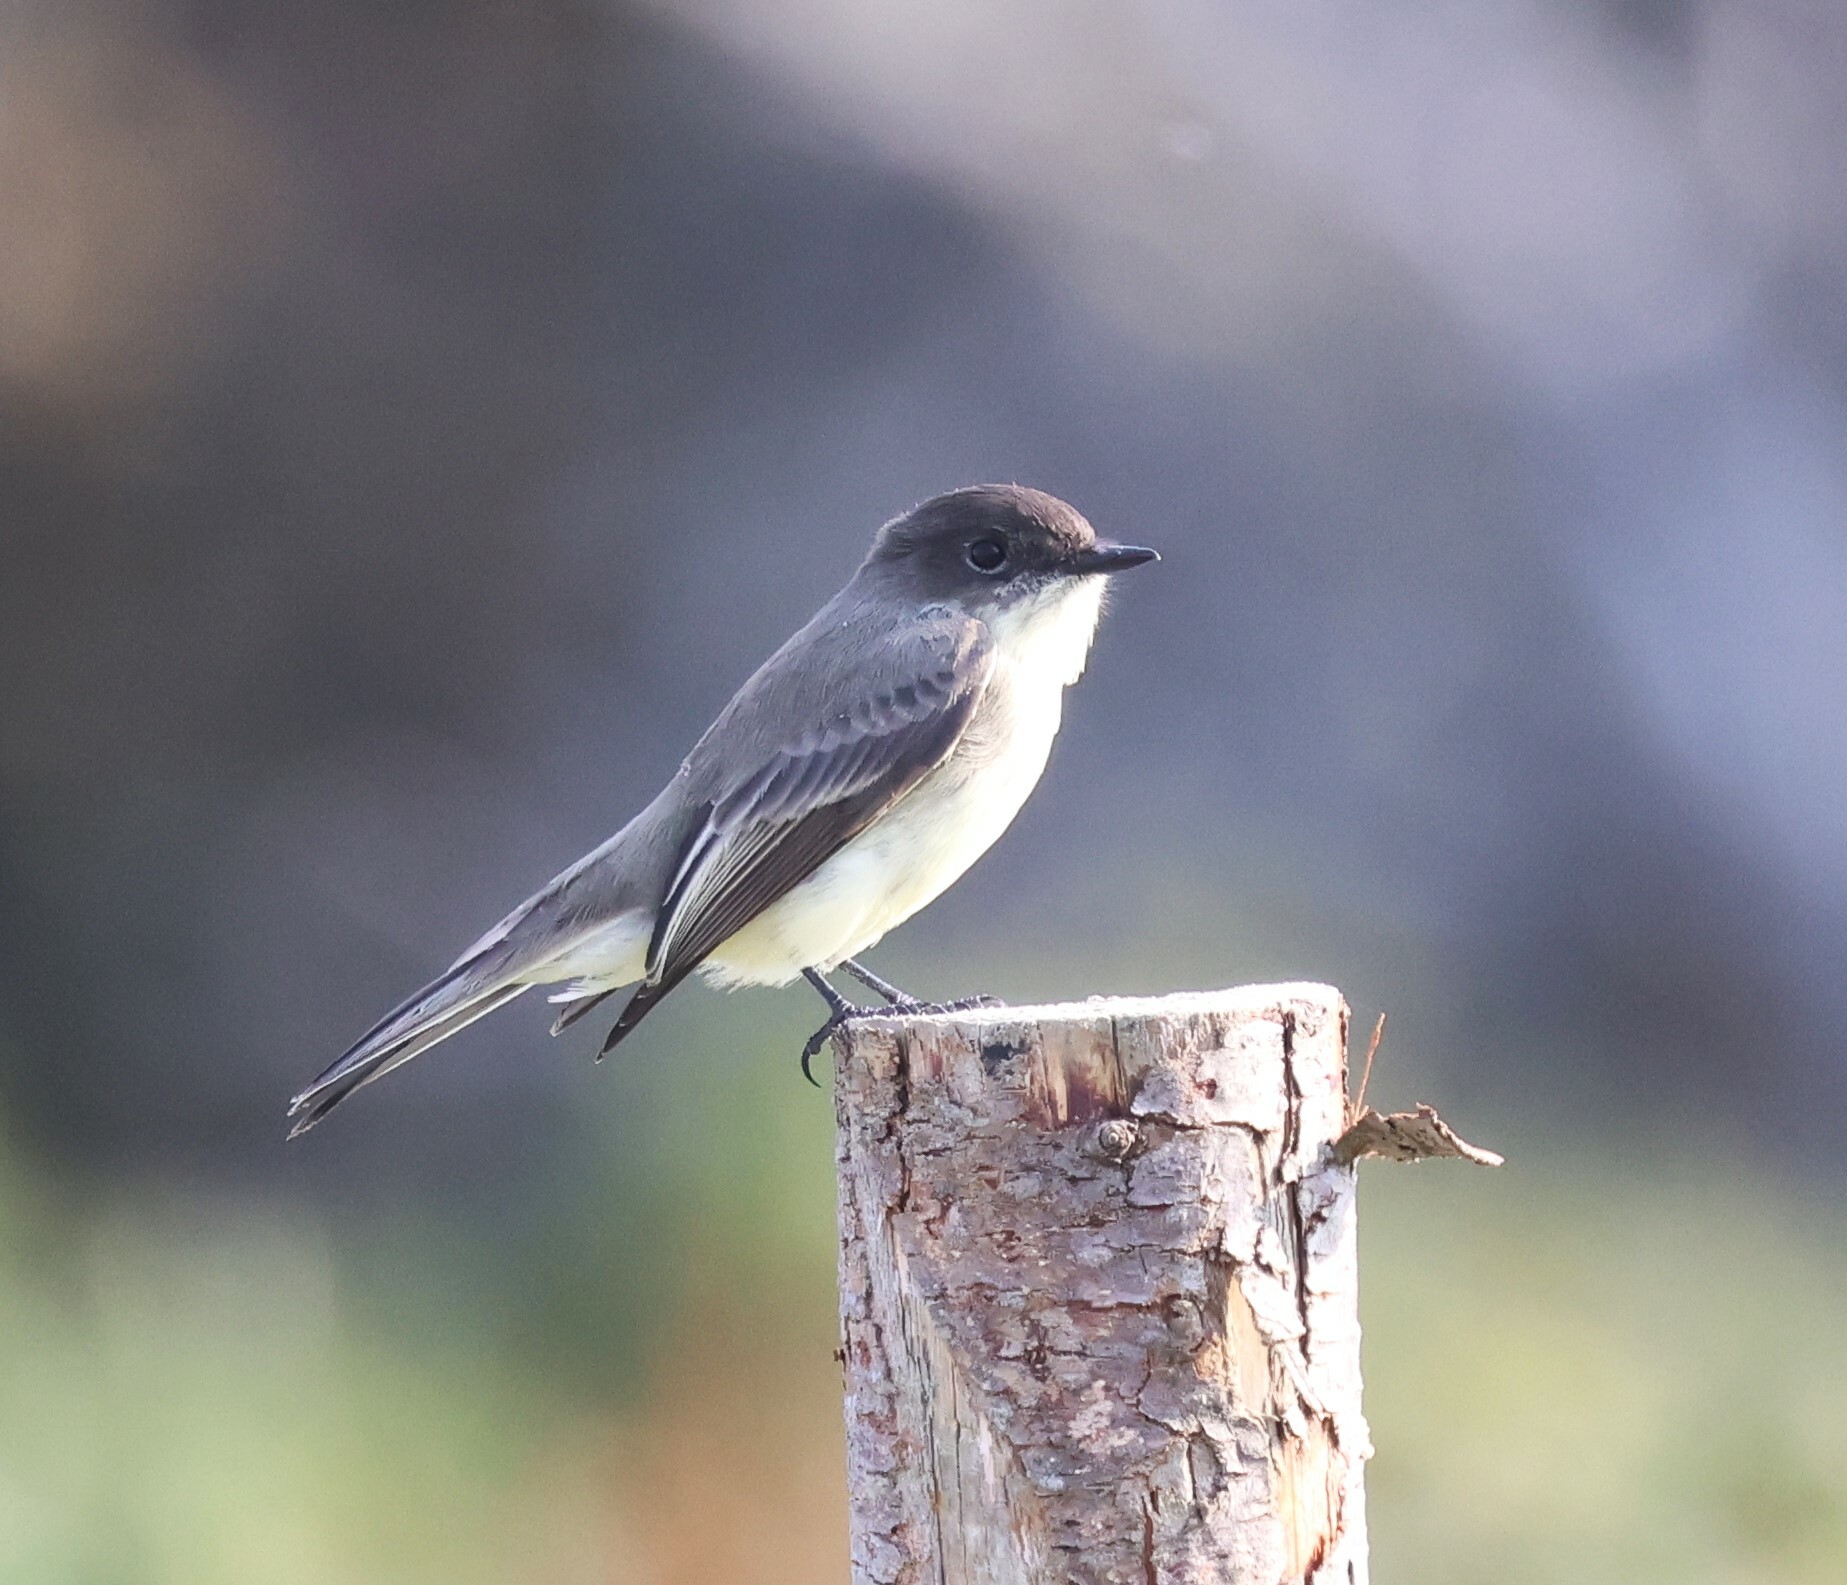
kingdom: Animalia
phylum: Chordata
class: Aves
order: Passeriformes
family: Tyrannidae
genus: Sayornis
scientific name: Sayornis phoebe
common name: Eastern phoebe
